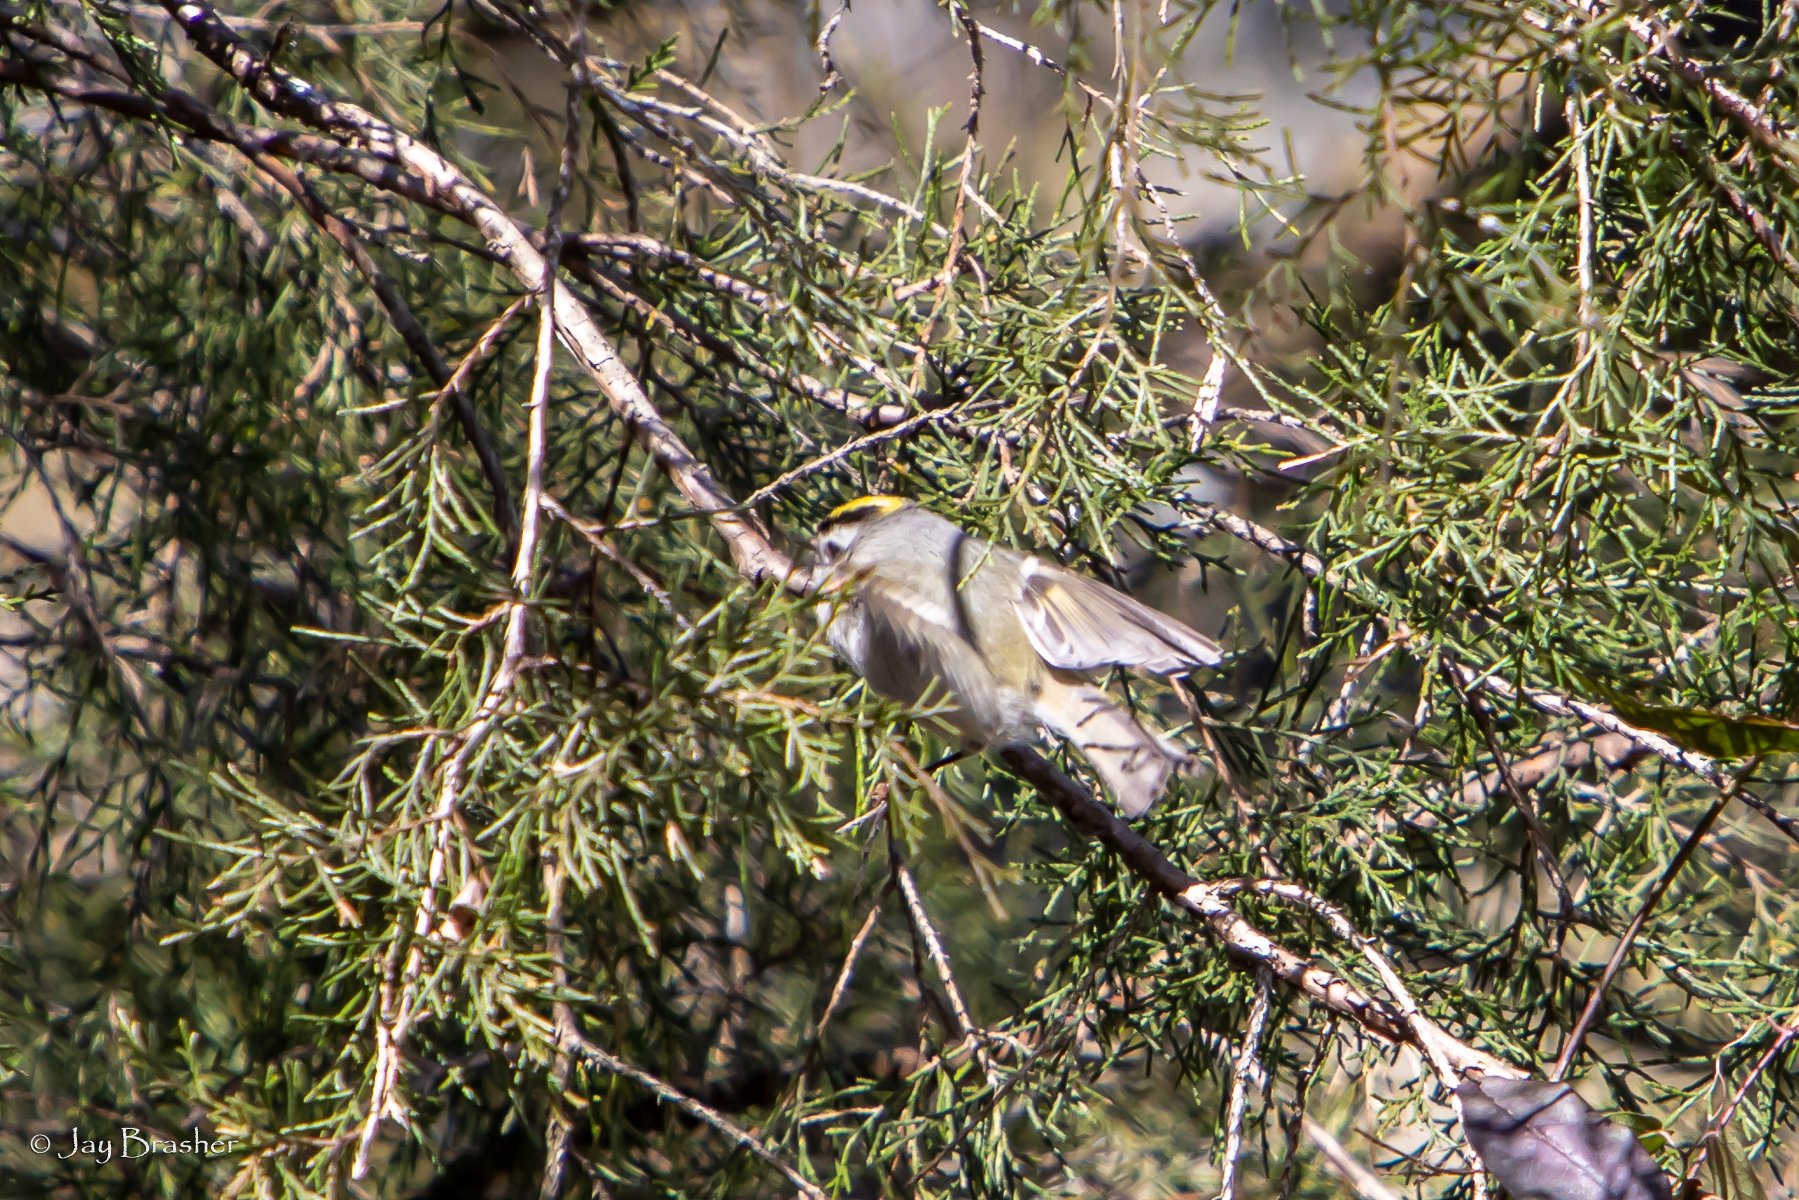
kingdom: Animalia
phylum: Chordata
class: Aves
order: Passeriformes
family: Regulidae
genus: Regulus
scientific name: Regulus satrapa
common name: Golden-crowned kinglet
